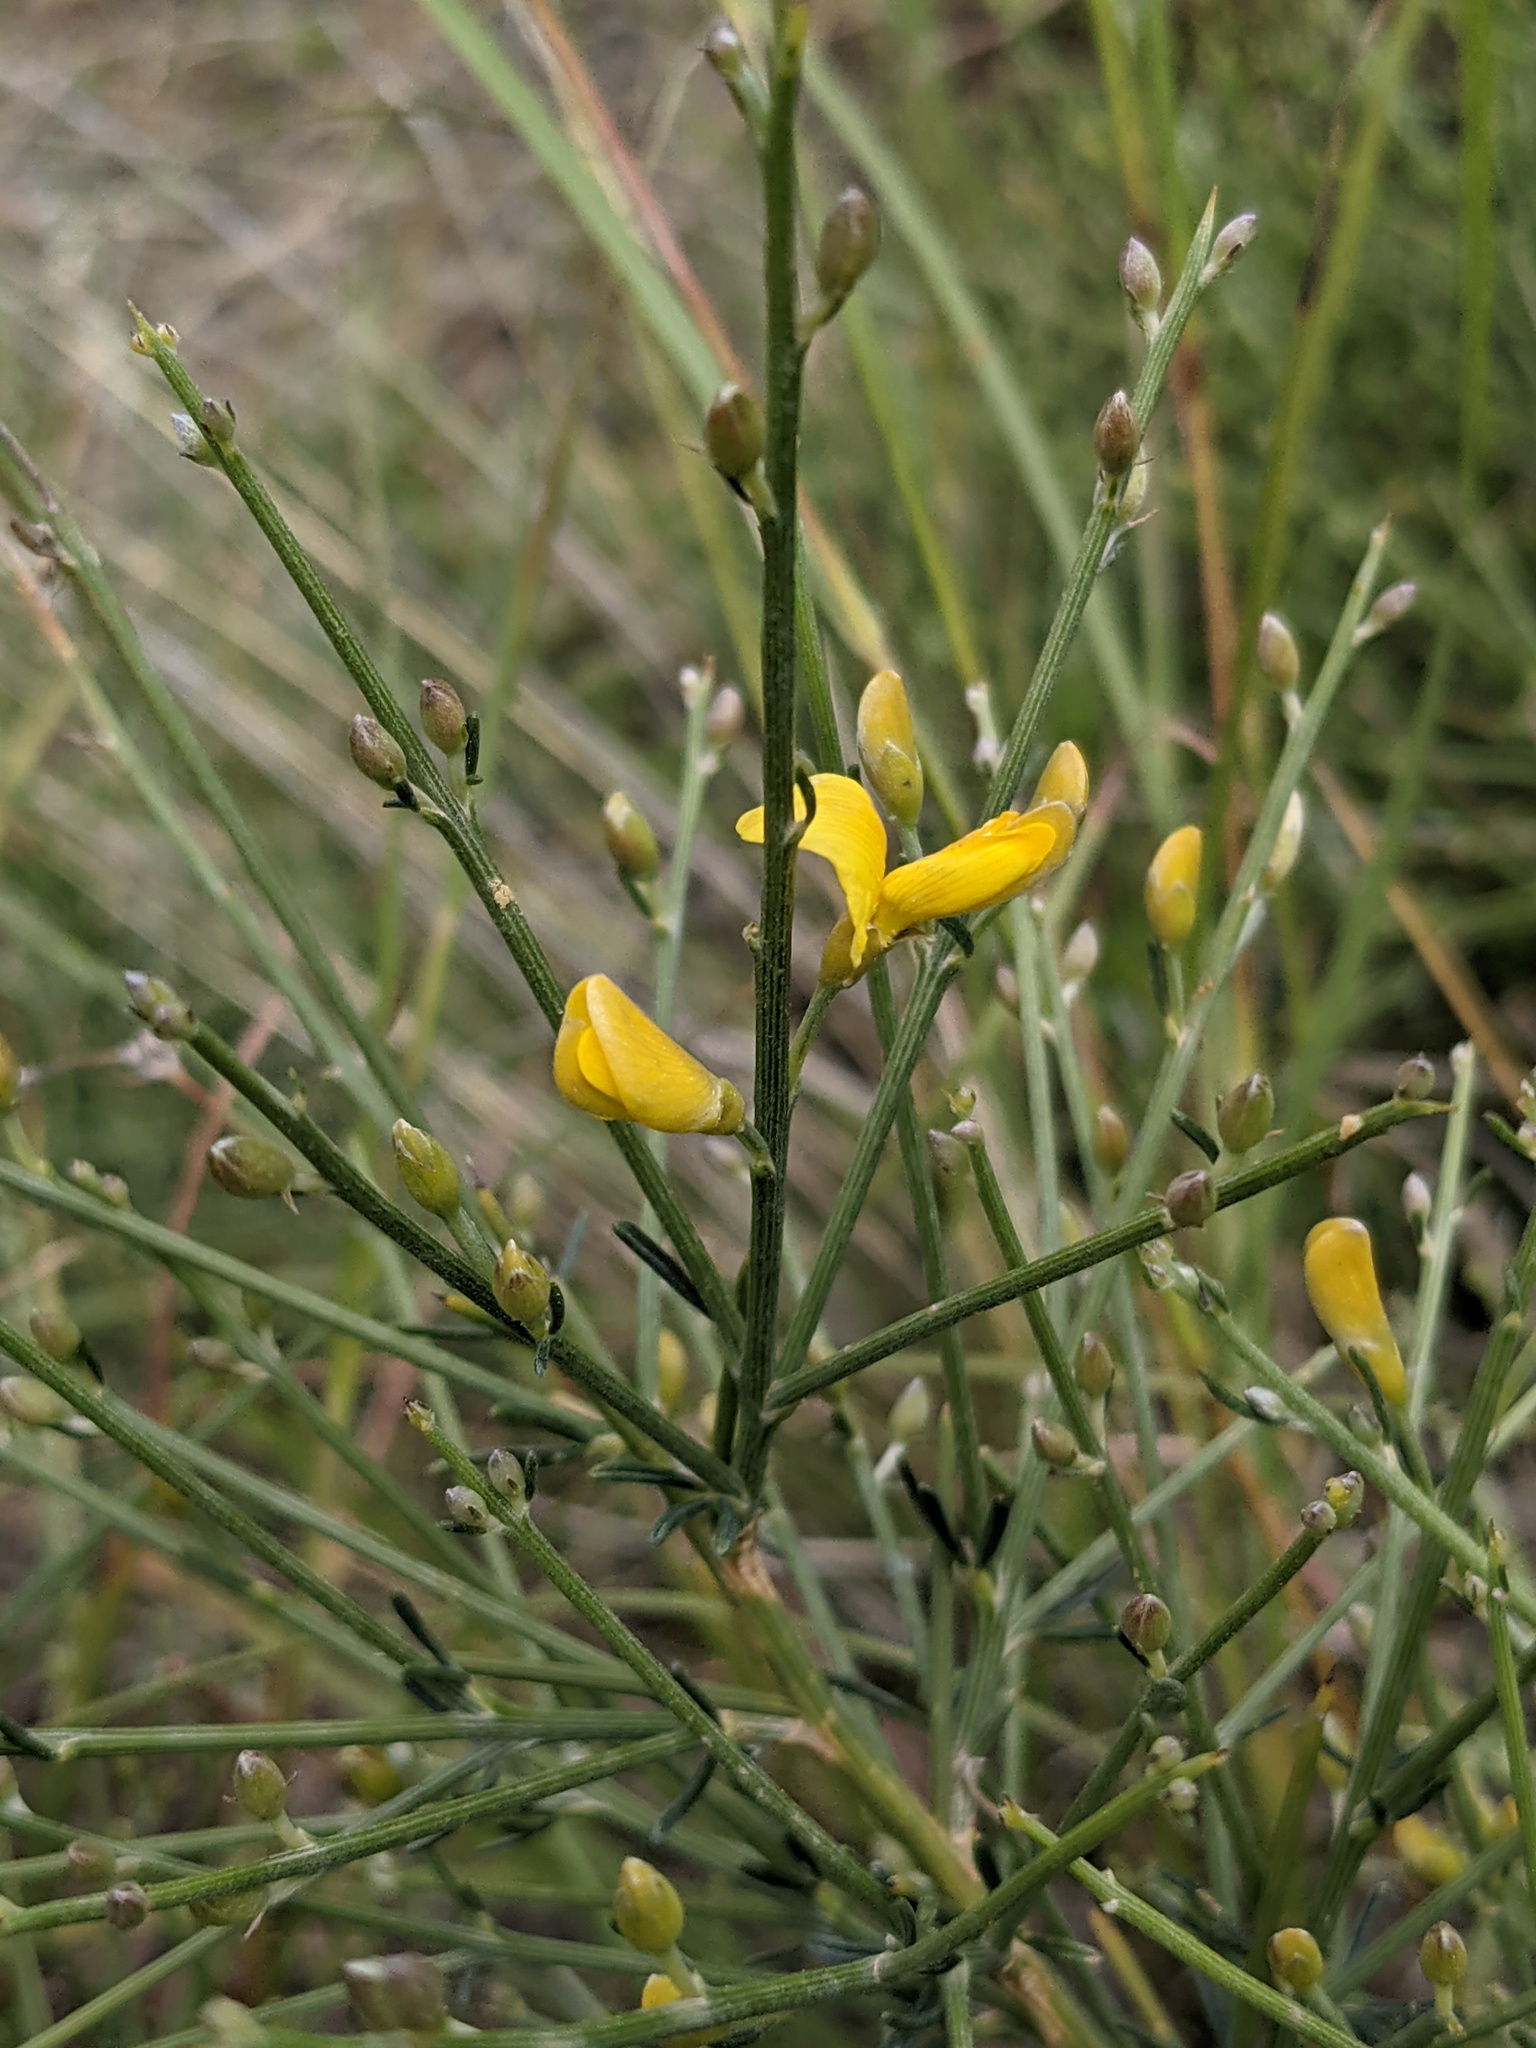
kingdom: Plantae
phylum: Tracheophyta
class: Magnoliopsida
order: Fabales
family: Fabaceae
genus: Spartium
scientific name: Spartium junceum
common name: Spanish broom
